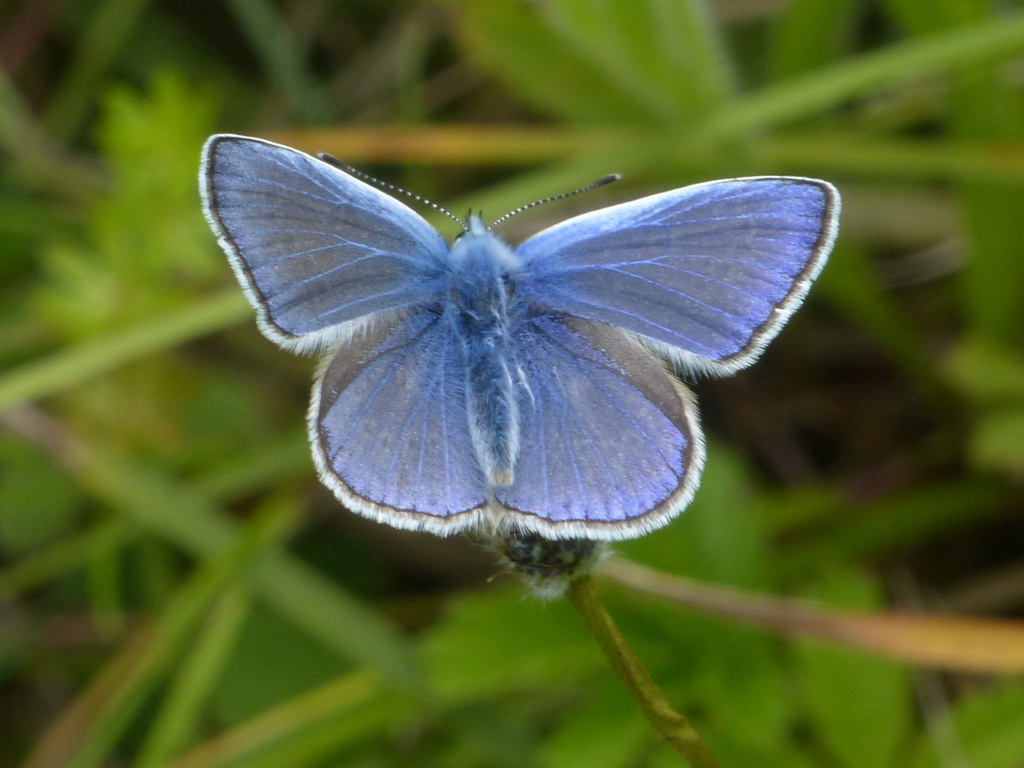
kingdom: Animalia
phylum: Arthropoda
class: Insecta
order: Lepidoptera
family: Lycaenidae
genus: Polyommatus
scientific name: Polyommatus icarus
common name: Common blue
